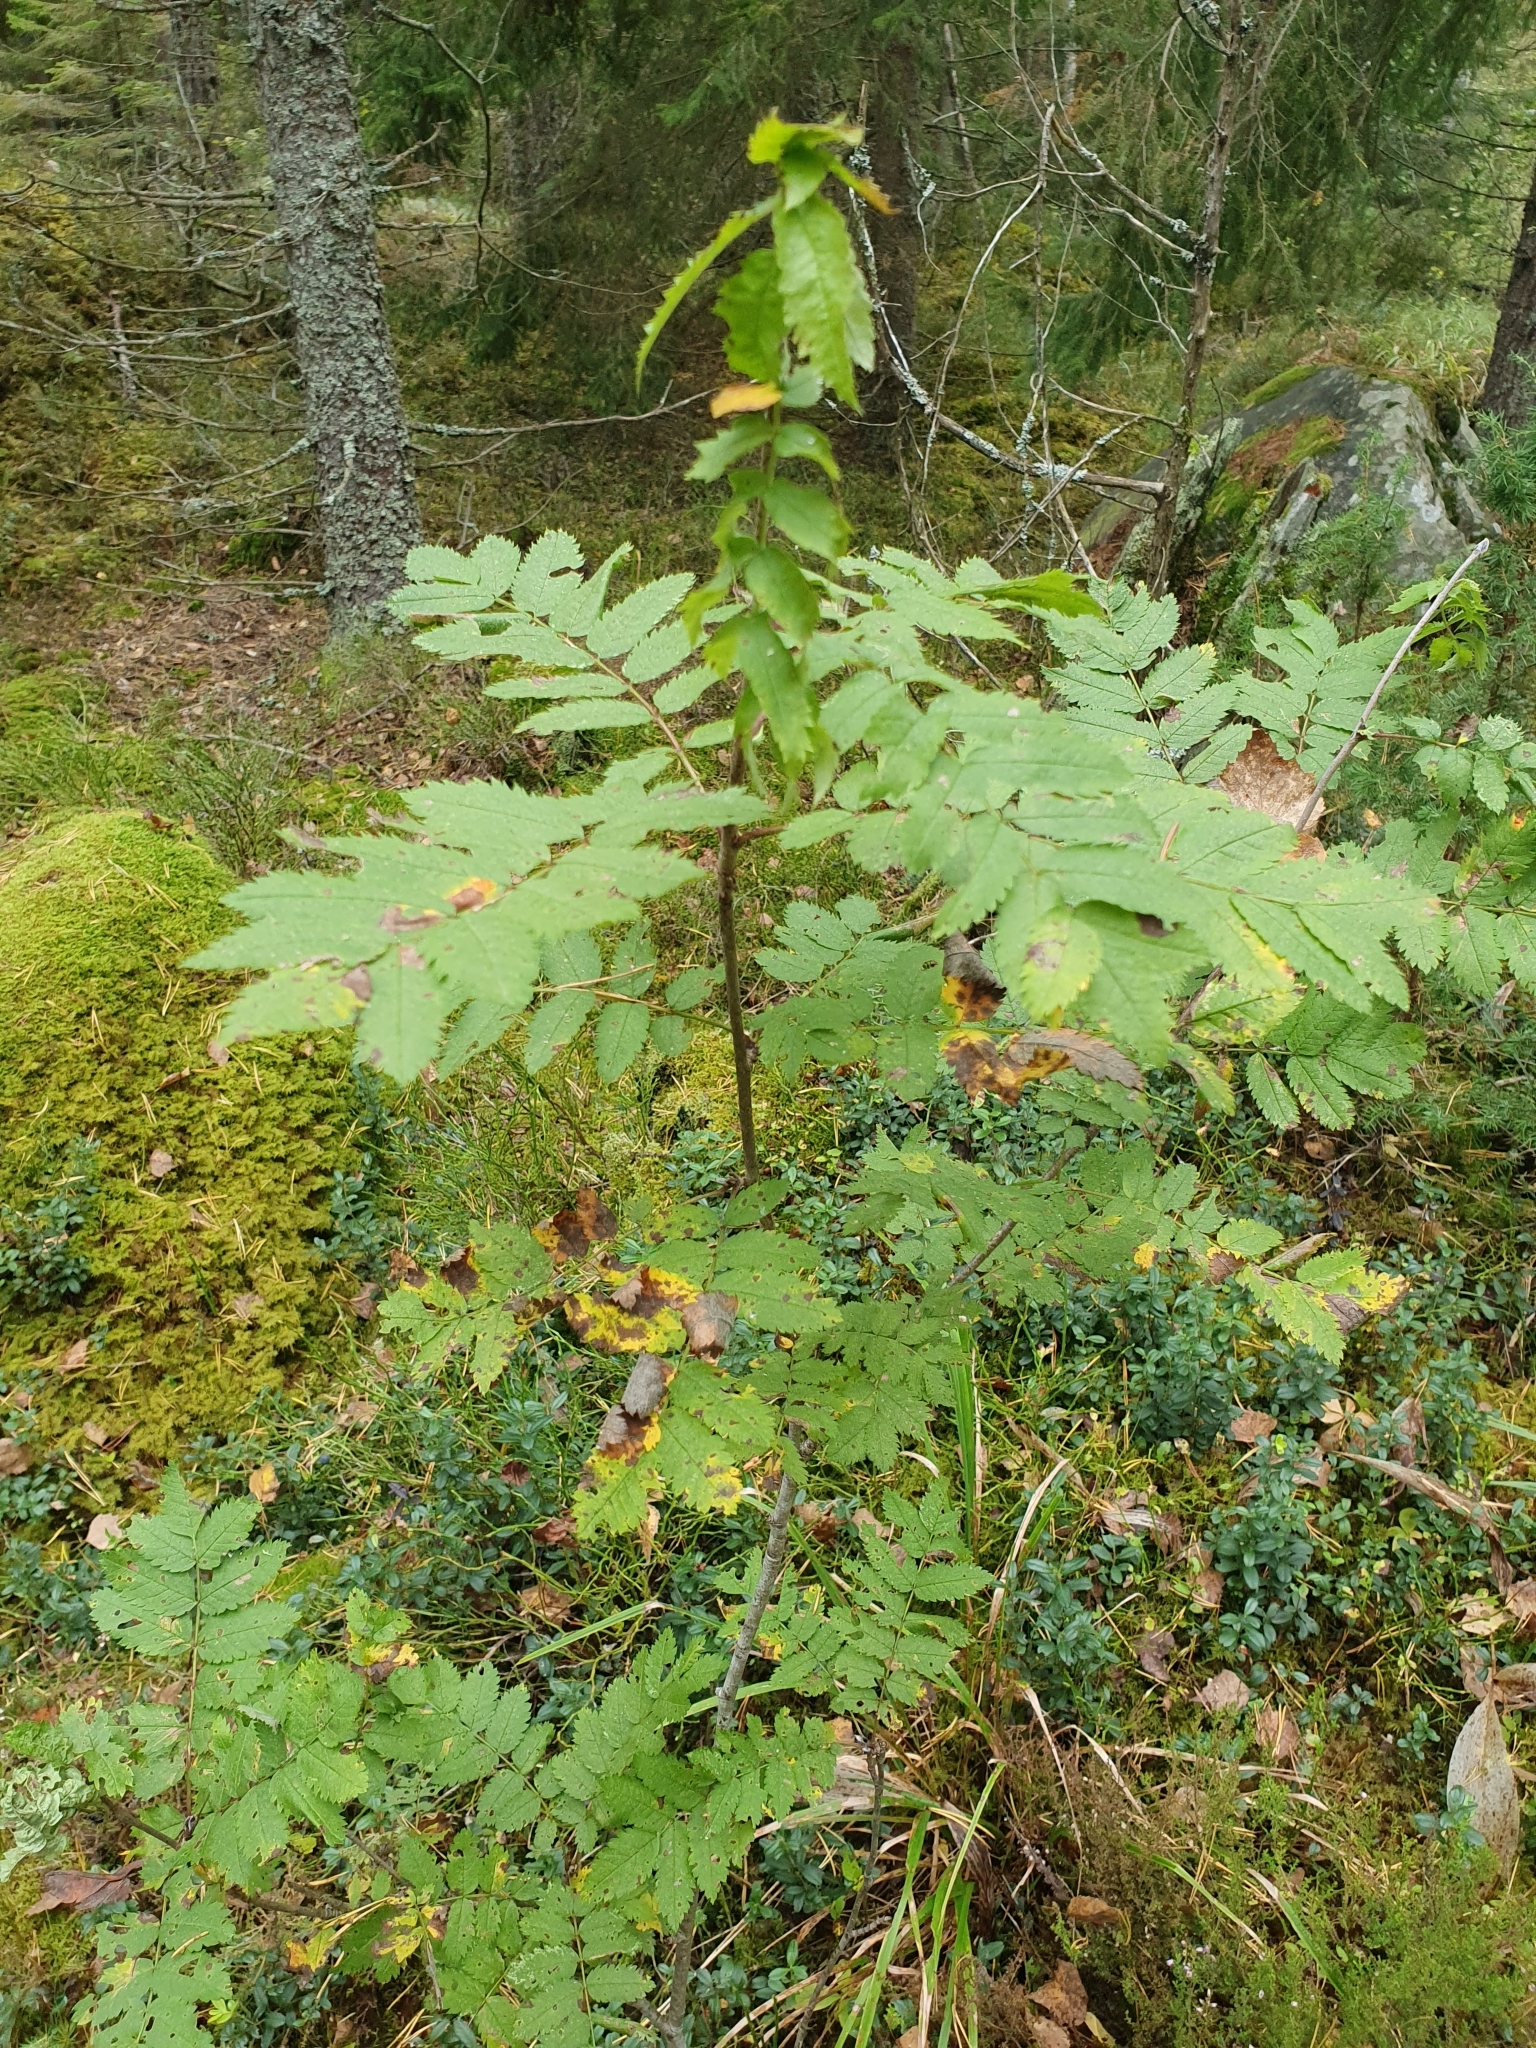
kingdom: Plantae
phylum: Tracheophyta
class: Magnoliopsida
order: Rosales
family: Rosaceae
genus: Sorbus
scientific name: Sorbus aucuparia
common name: Rowan
